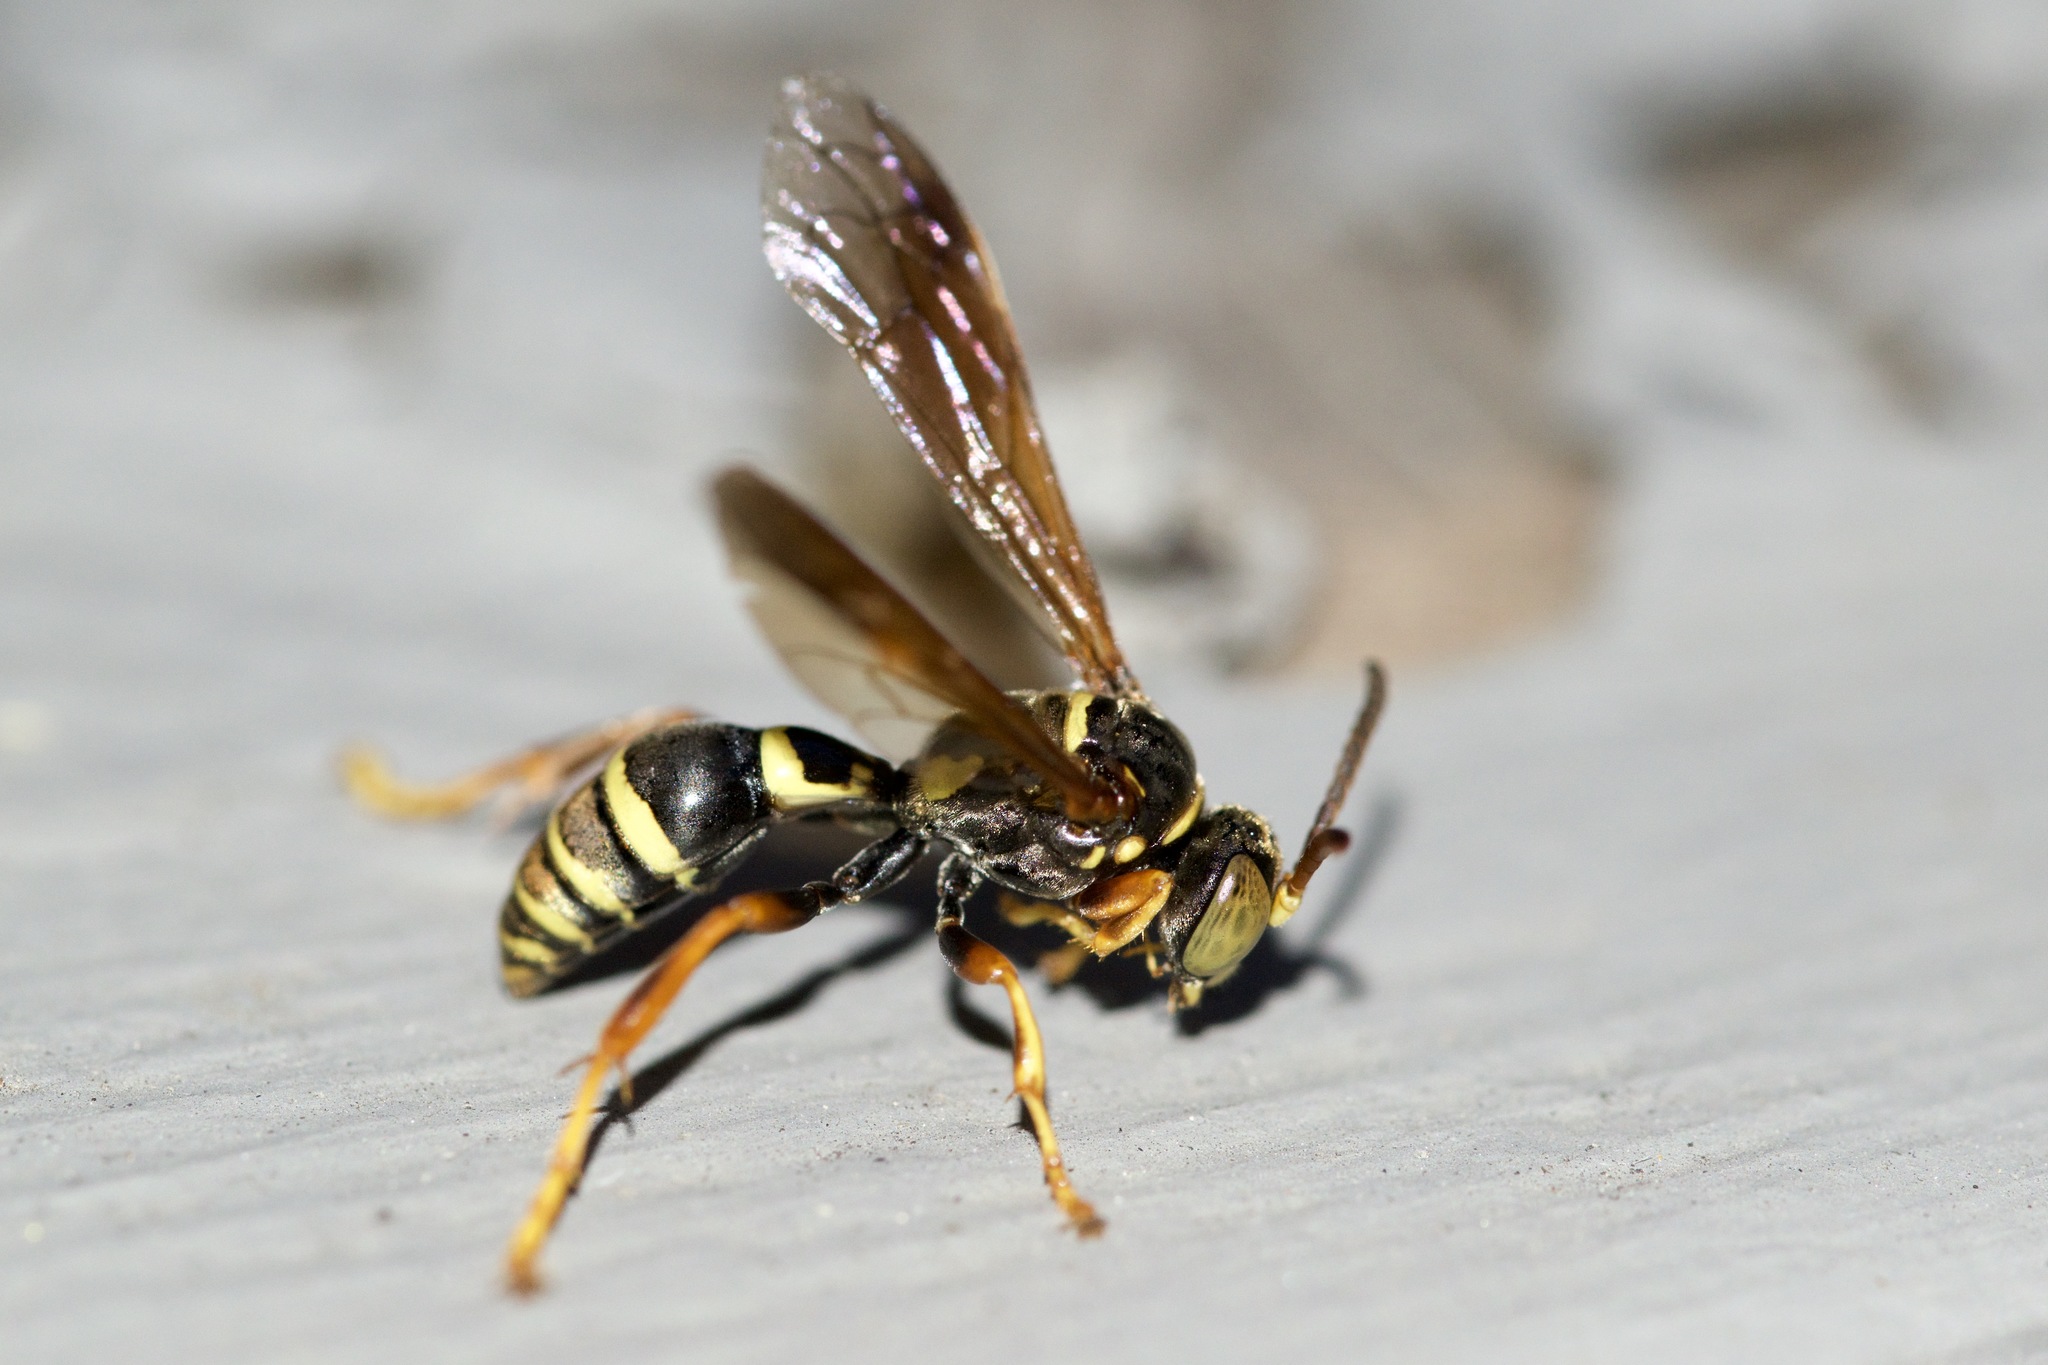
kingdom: Animalia
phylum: Arthropoda
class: Insecta
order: Hymenoptera
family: Crabronidae
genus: Saygorytes
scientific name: Saygorytes phaleratus
